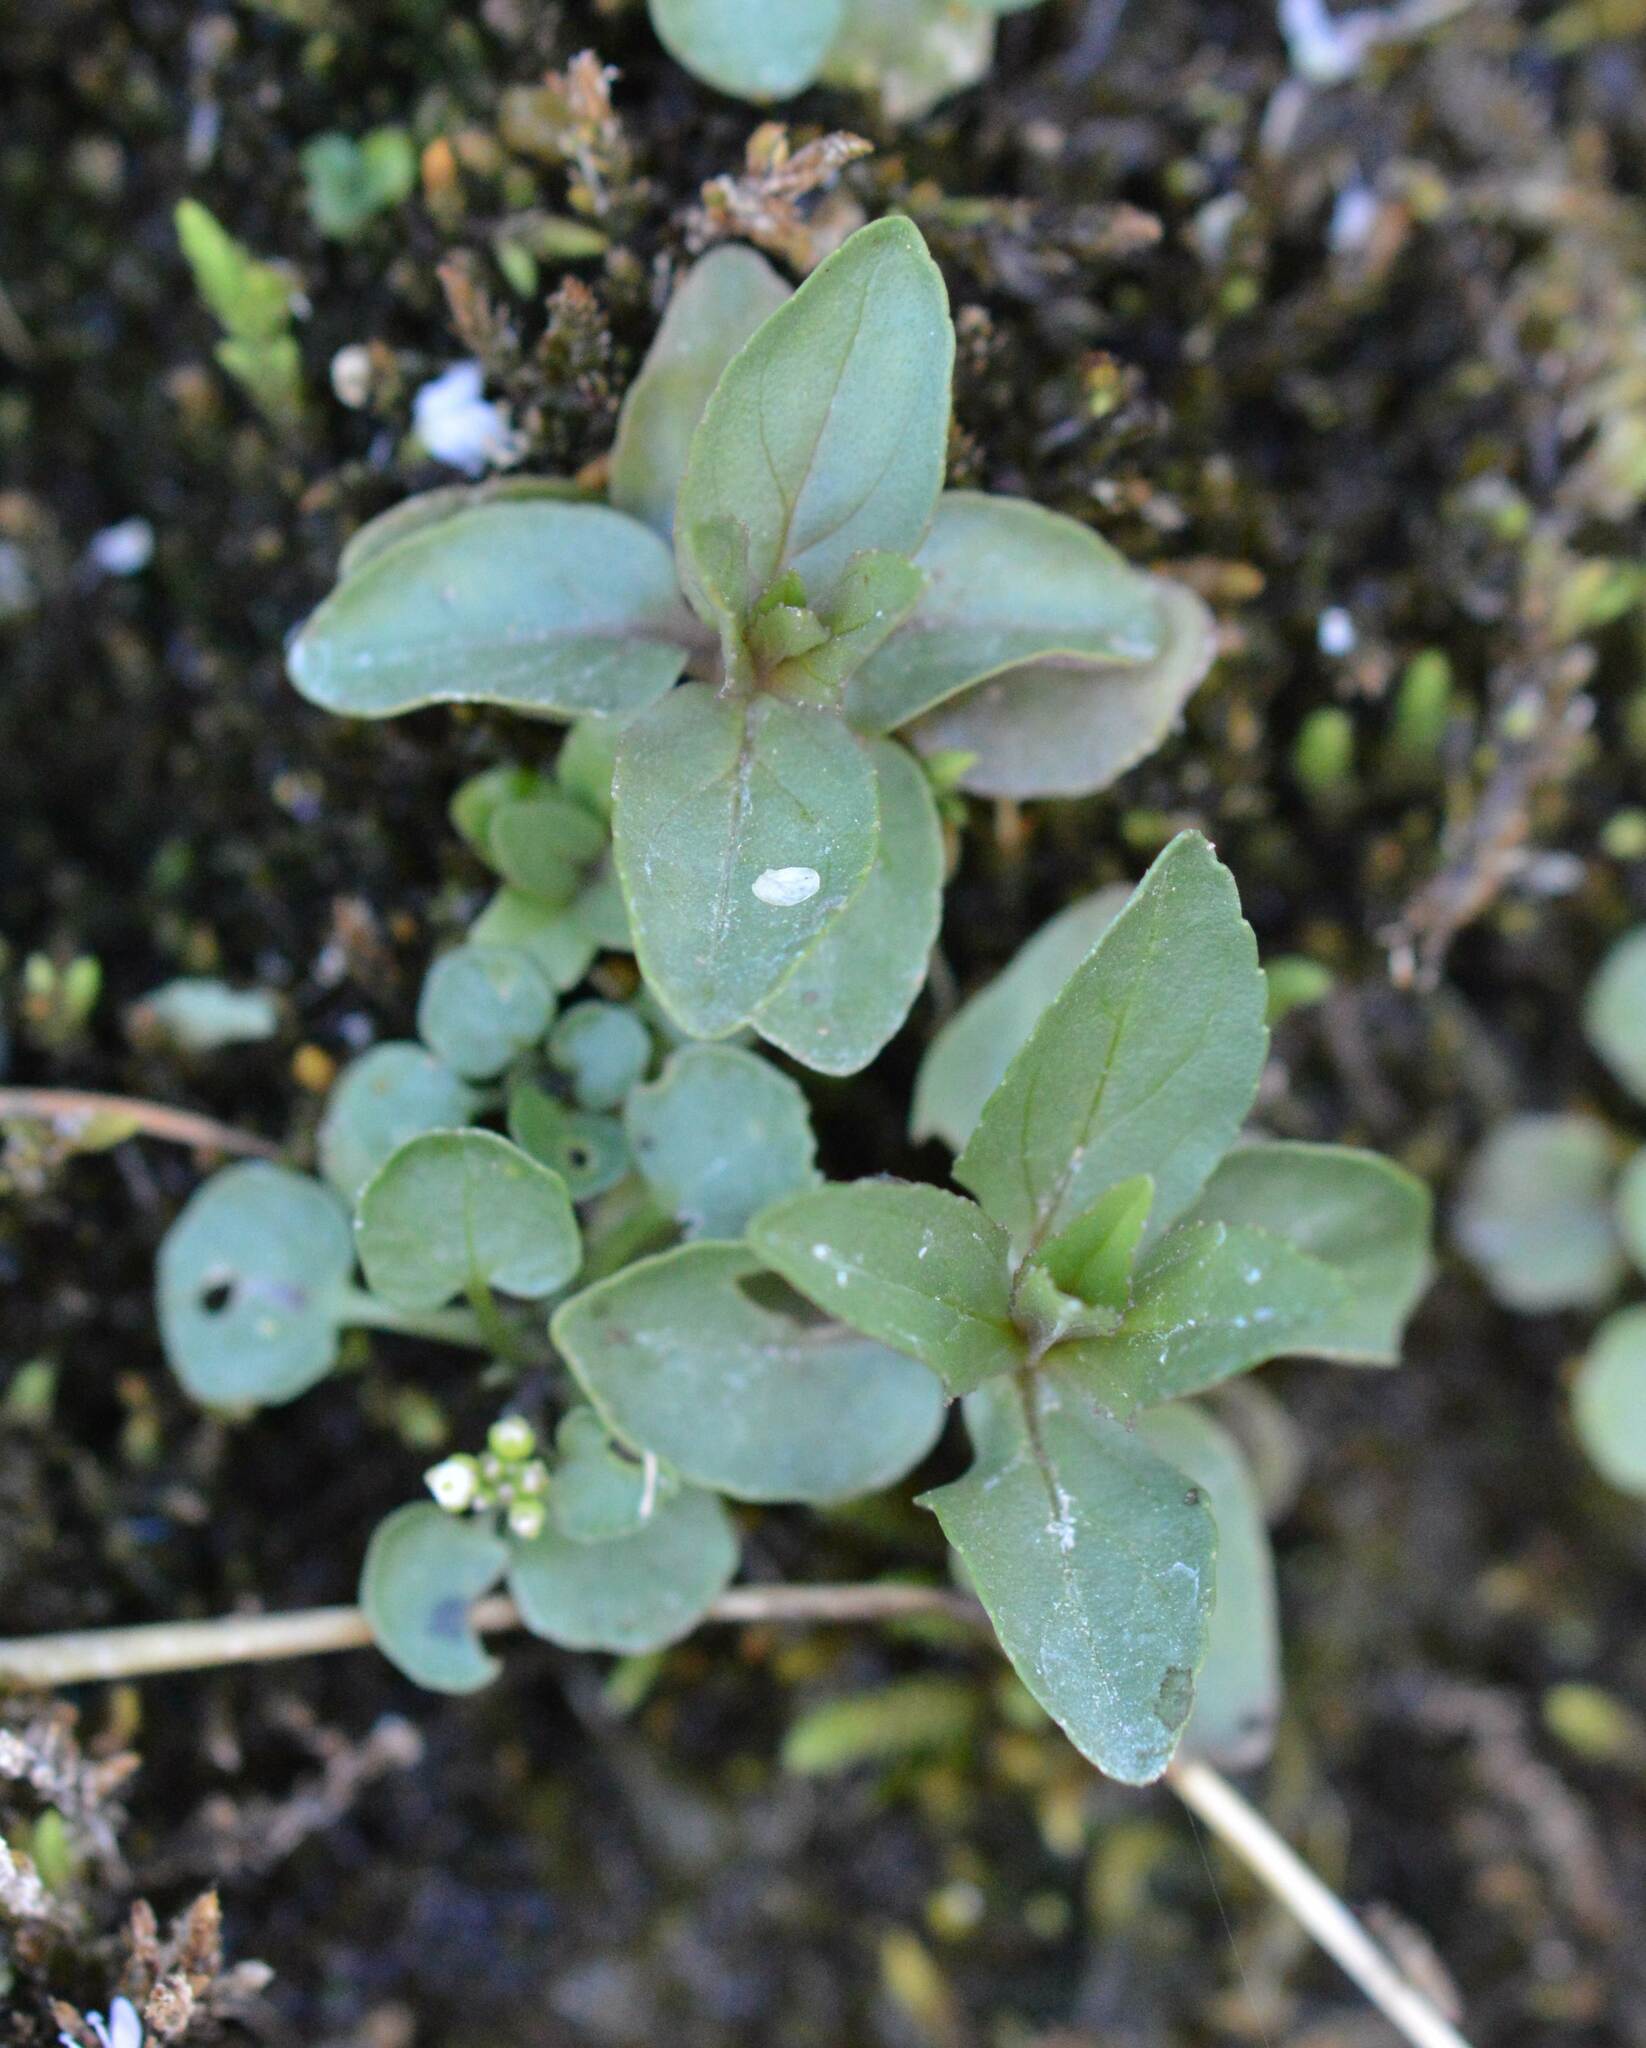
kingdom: Plantae
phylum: Tracheophyta
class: Magnoliopsida
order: Lamiales
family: Plantaginaceae
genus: Veronica
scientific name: Veronica anagallis-aquatica
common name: Water speedwell
